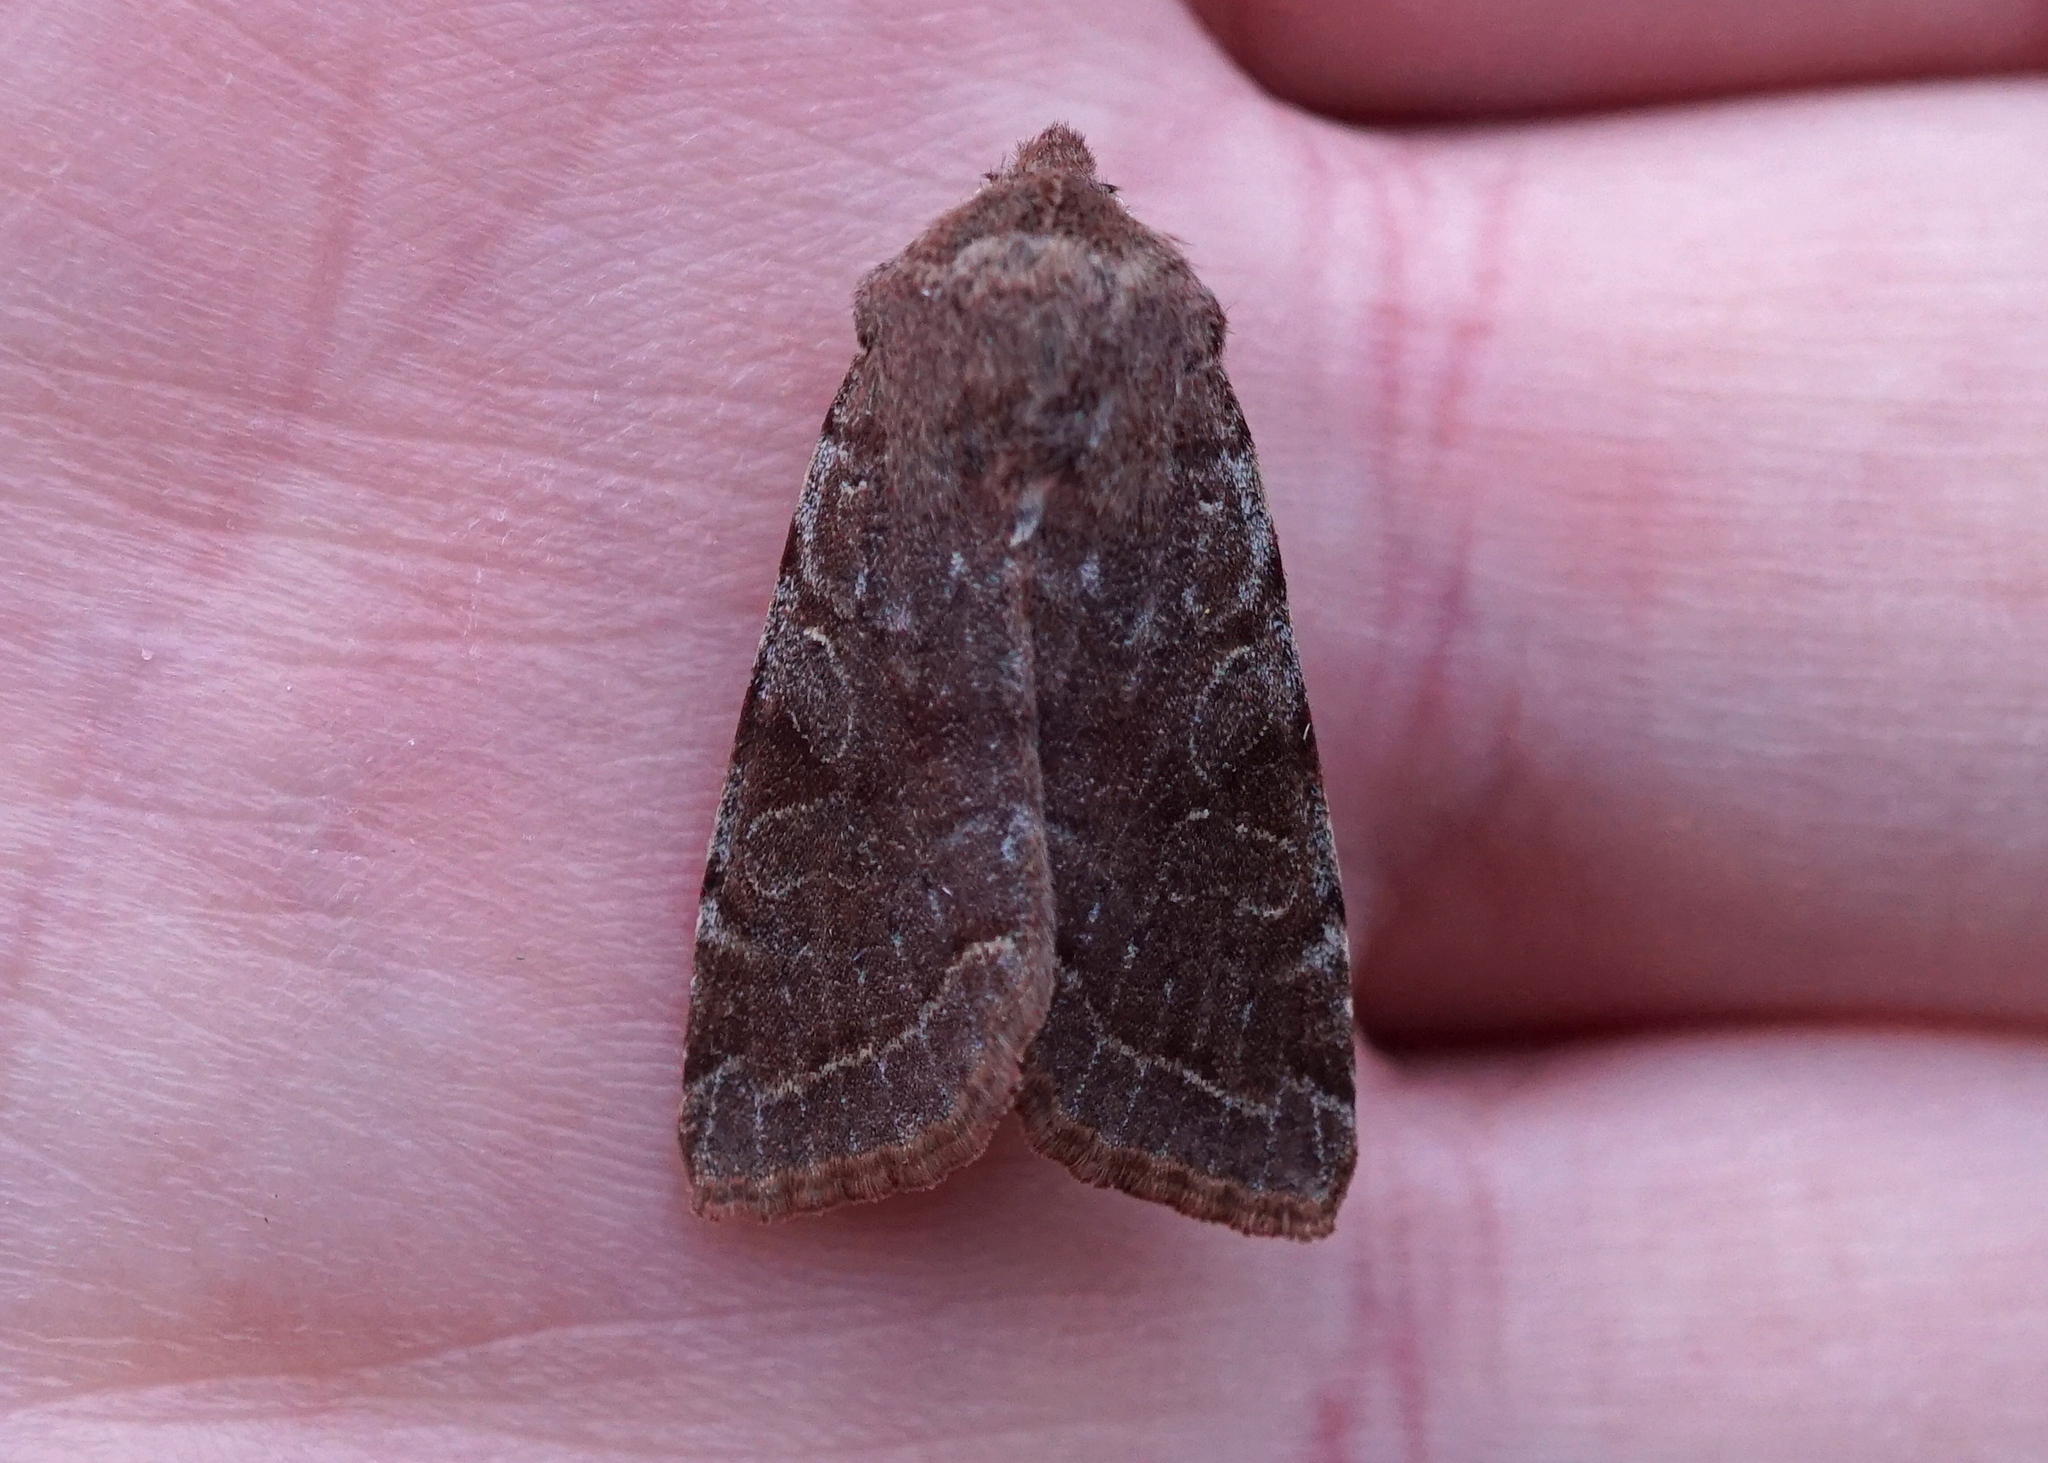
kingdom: Animalia
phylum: Arthropoda
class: Insecta
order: Lepidoptera
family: Noctuidae
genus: Orthosia
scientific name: Orthosia incerta
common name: Clouded drab
